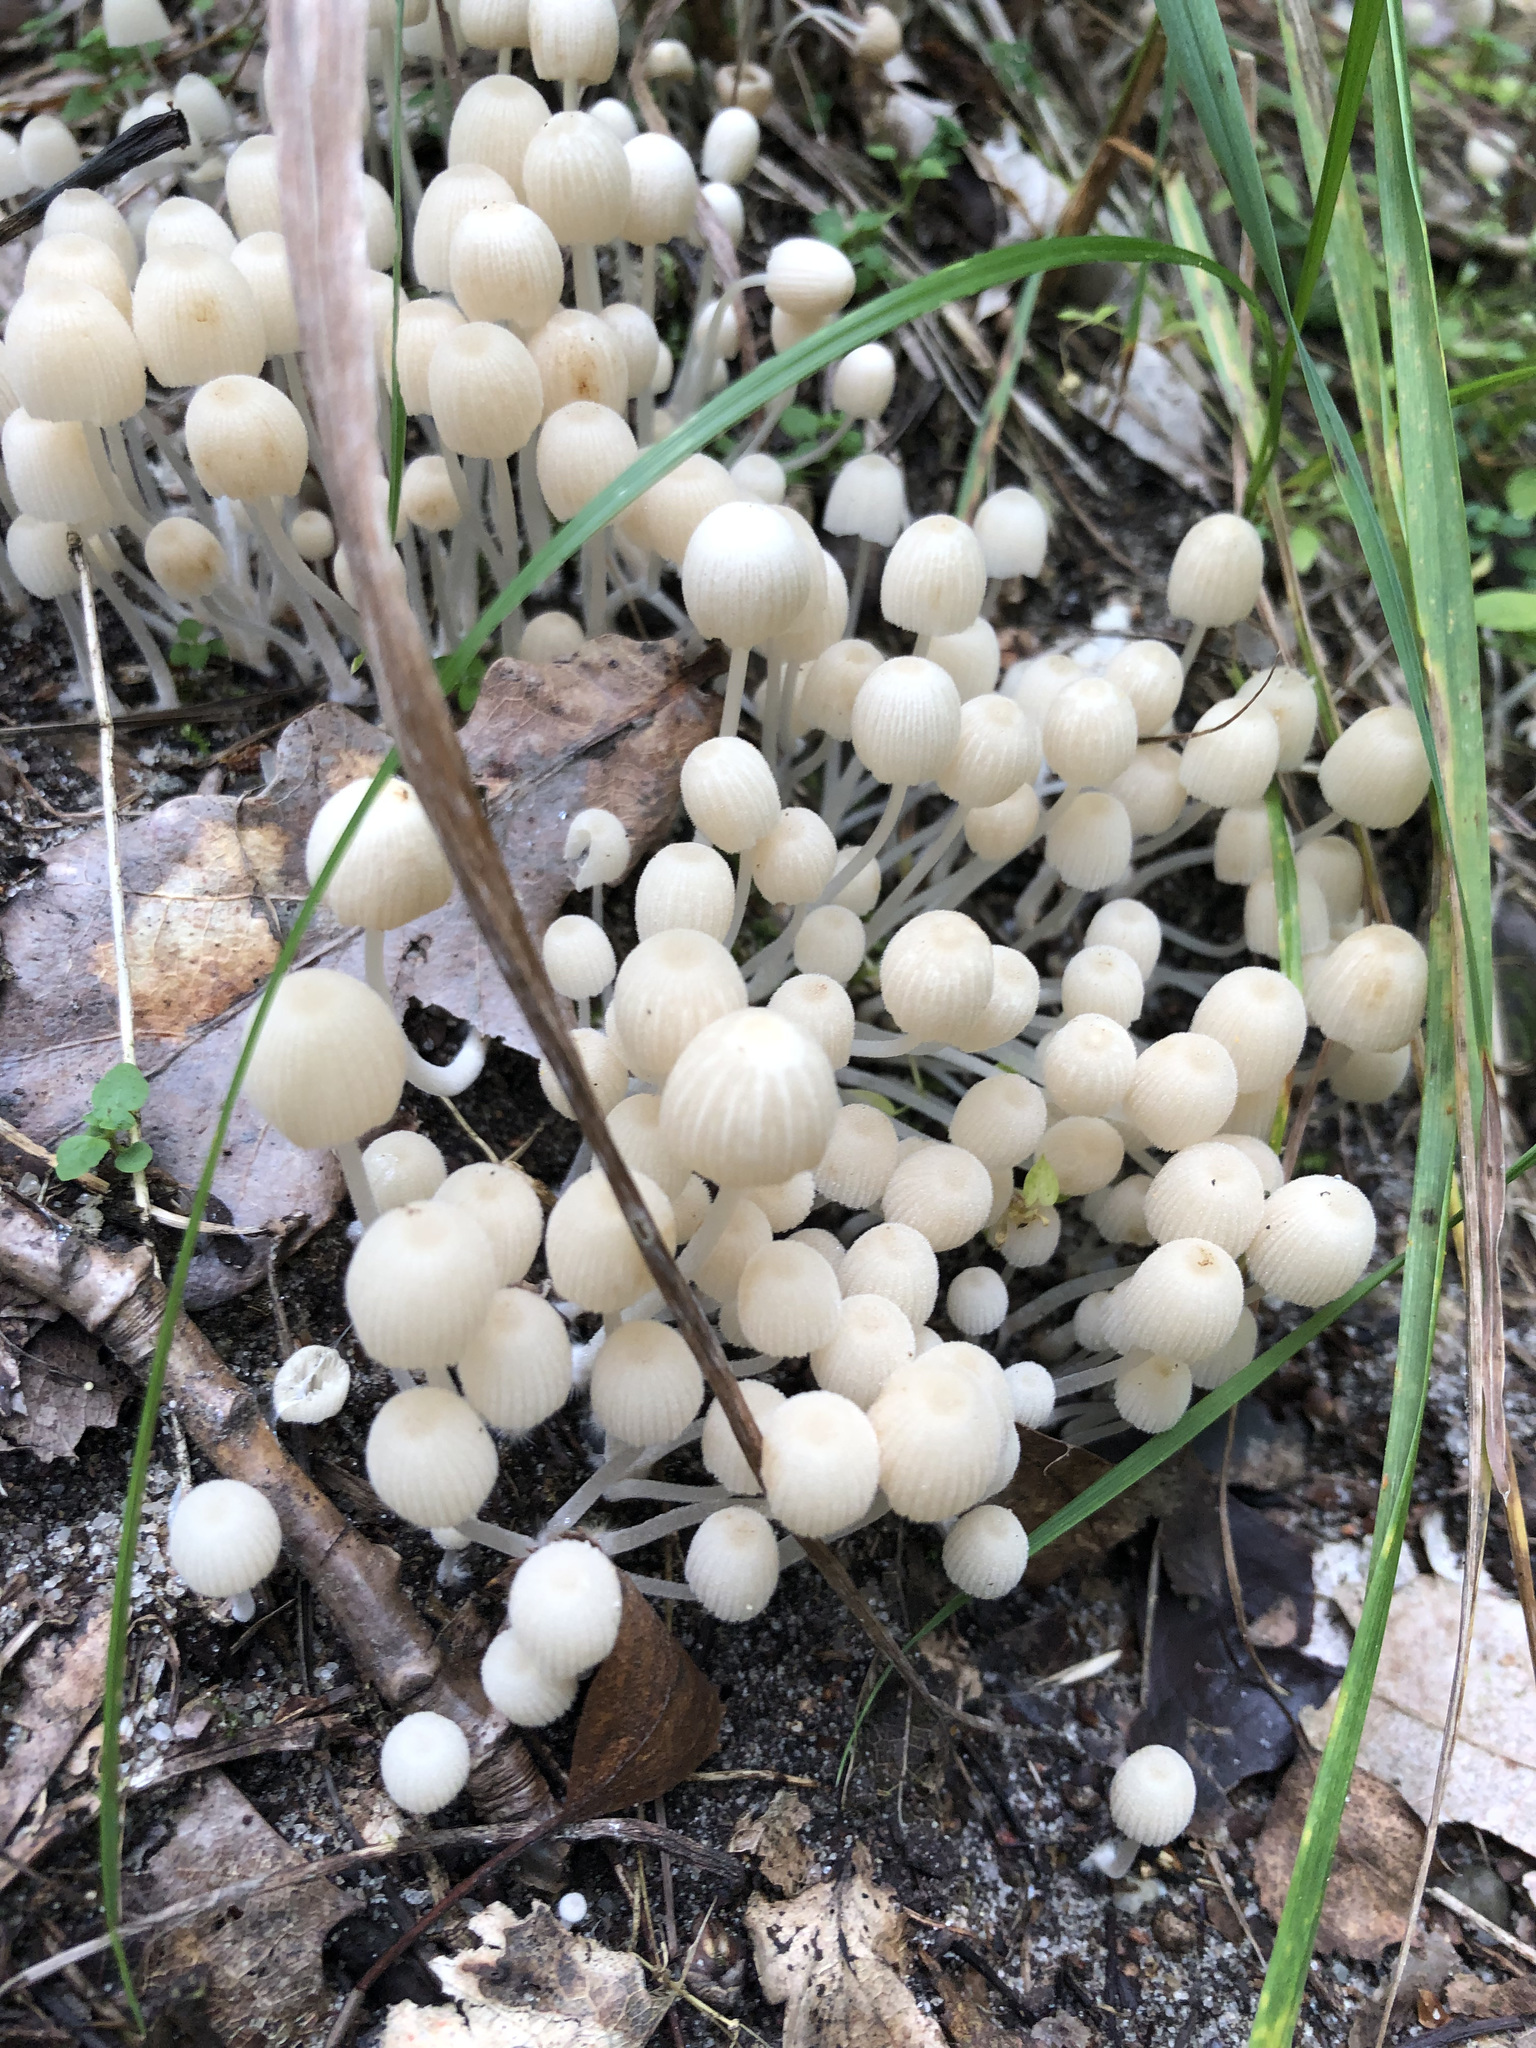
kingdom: Fungi
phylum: Basidiomycota
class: Agaricomycetes
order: Agaricales
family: Psathyrellaceae
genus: Coprinellus
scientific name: Coprinellus disseminatus
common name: Fairies' bonnets
